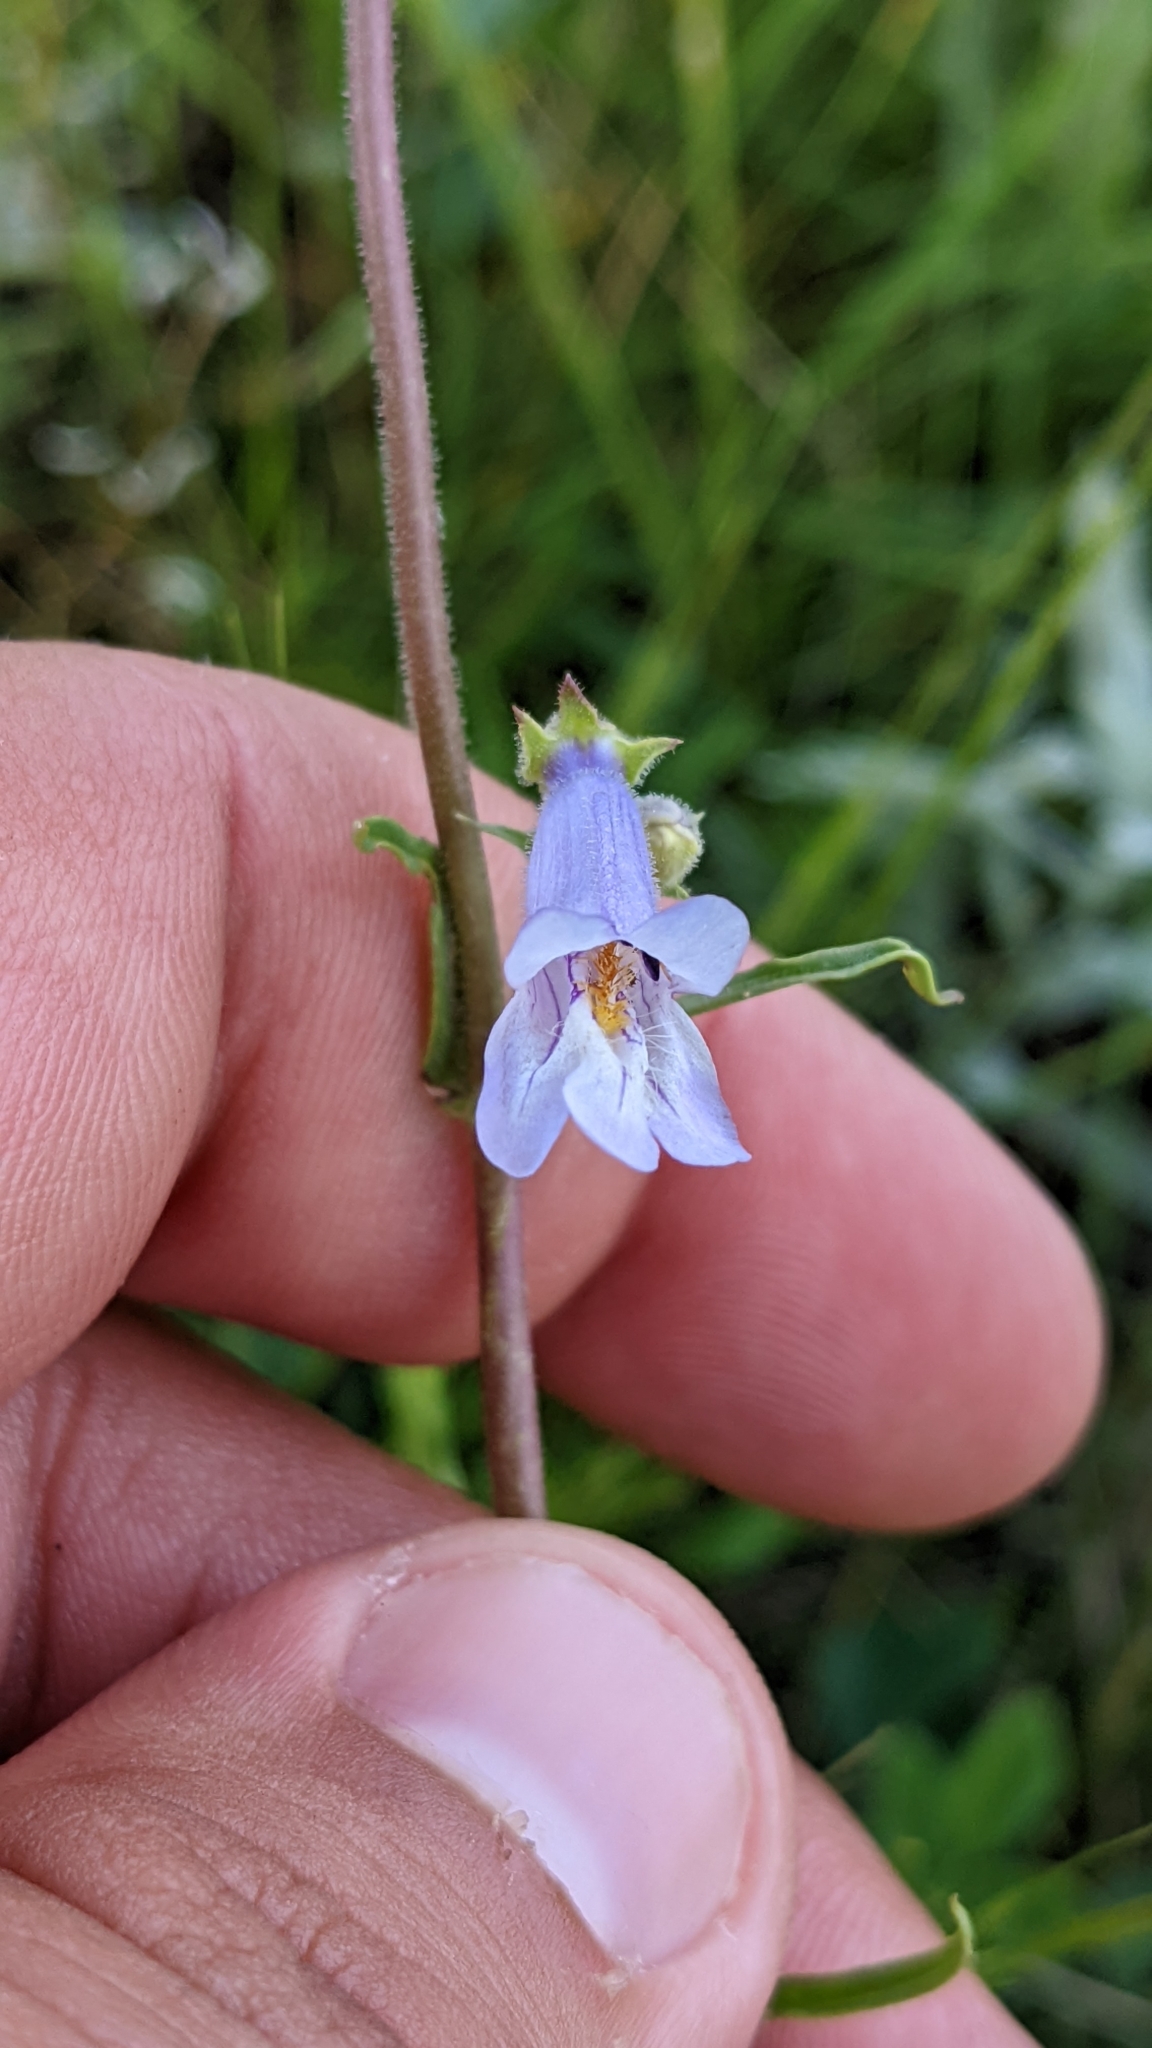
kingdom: Plantae
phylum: Tracheophyta
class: Magnoliopsida
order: Lamiales
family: Plantaginaceae
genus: Penstemon
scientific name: Penstemon gracilis
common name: Slender beardtongue
